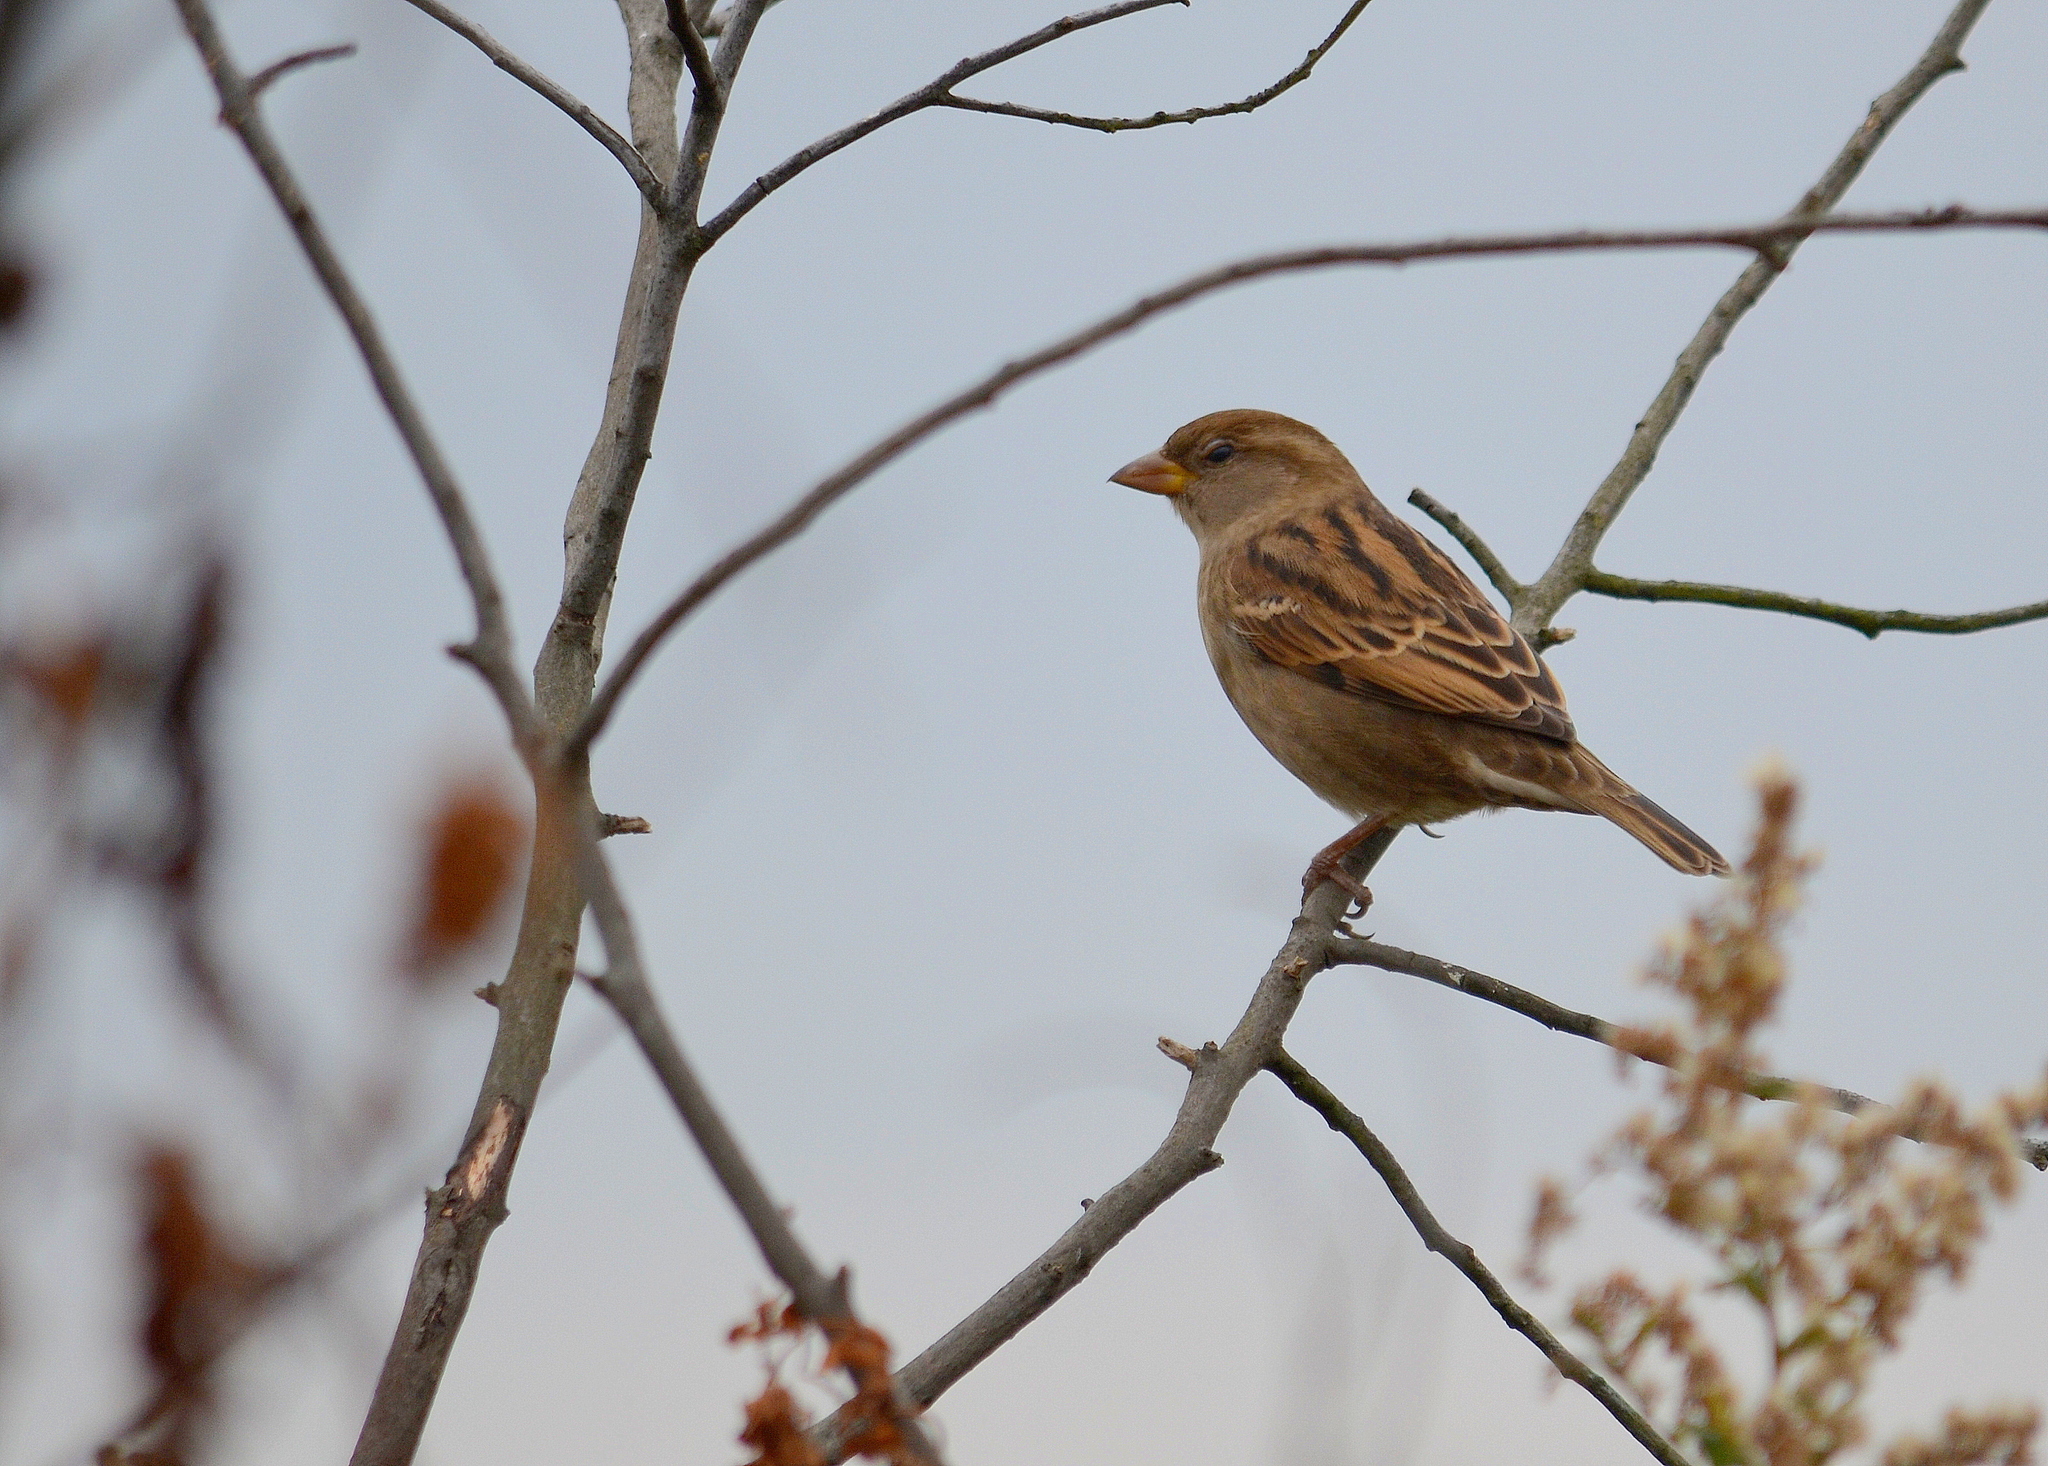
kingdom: Animalia
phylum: Chordata
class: Aves
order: Passeriformes
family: Passeridae
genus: Passer
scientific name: Passer domesticus
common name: House sparrow
